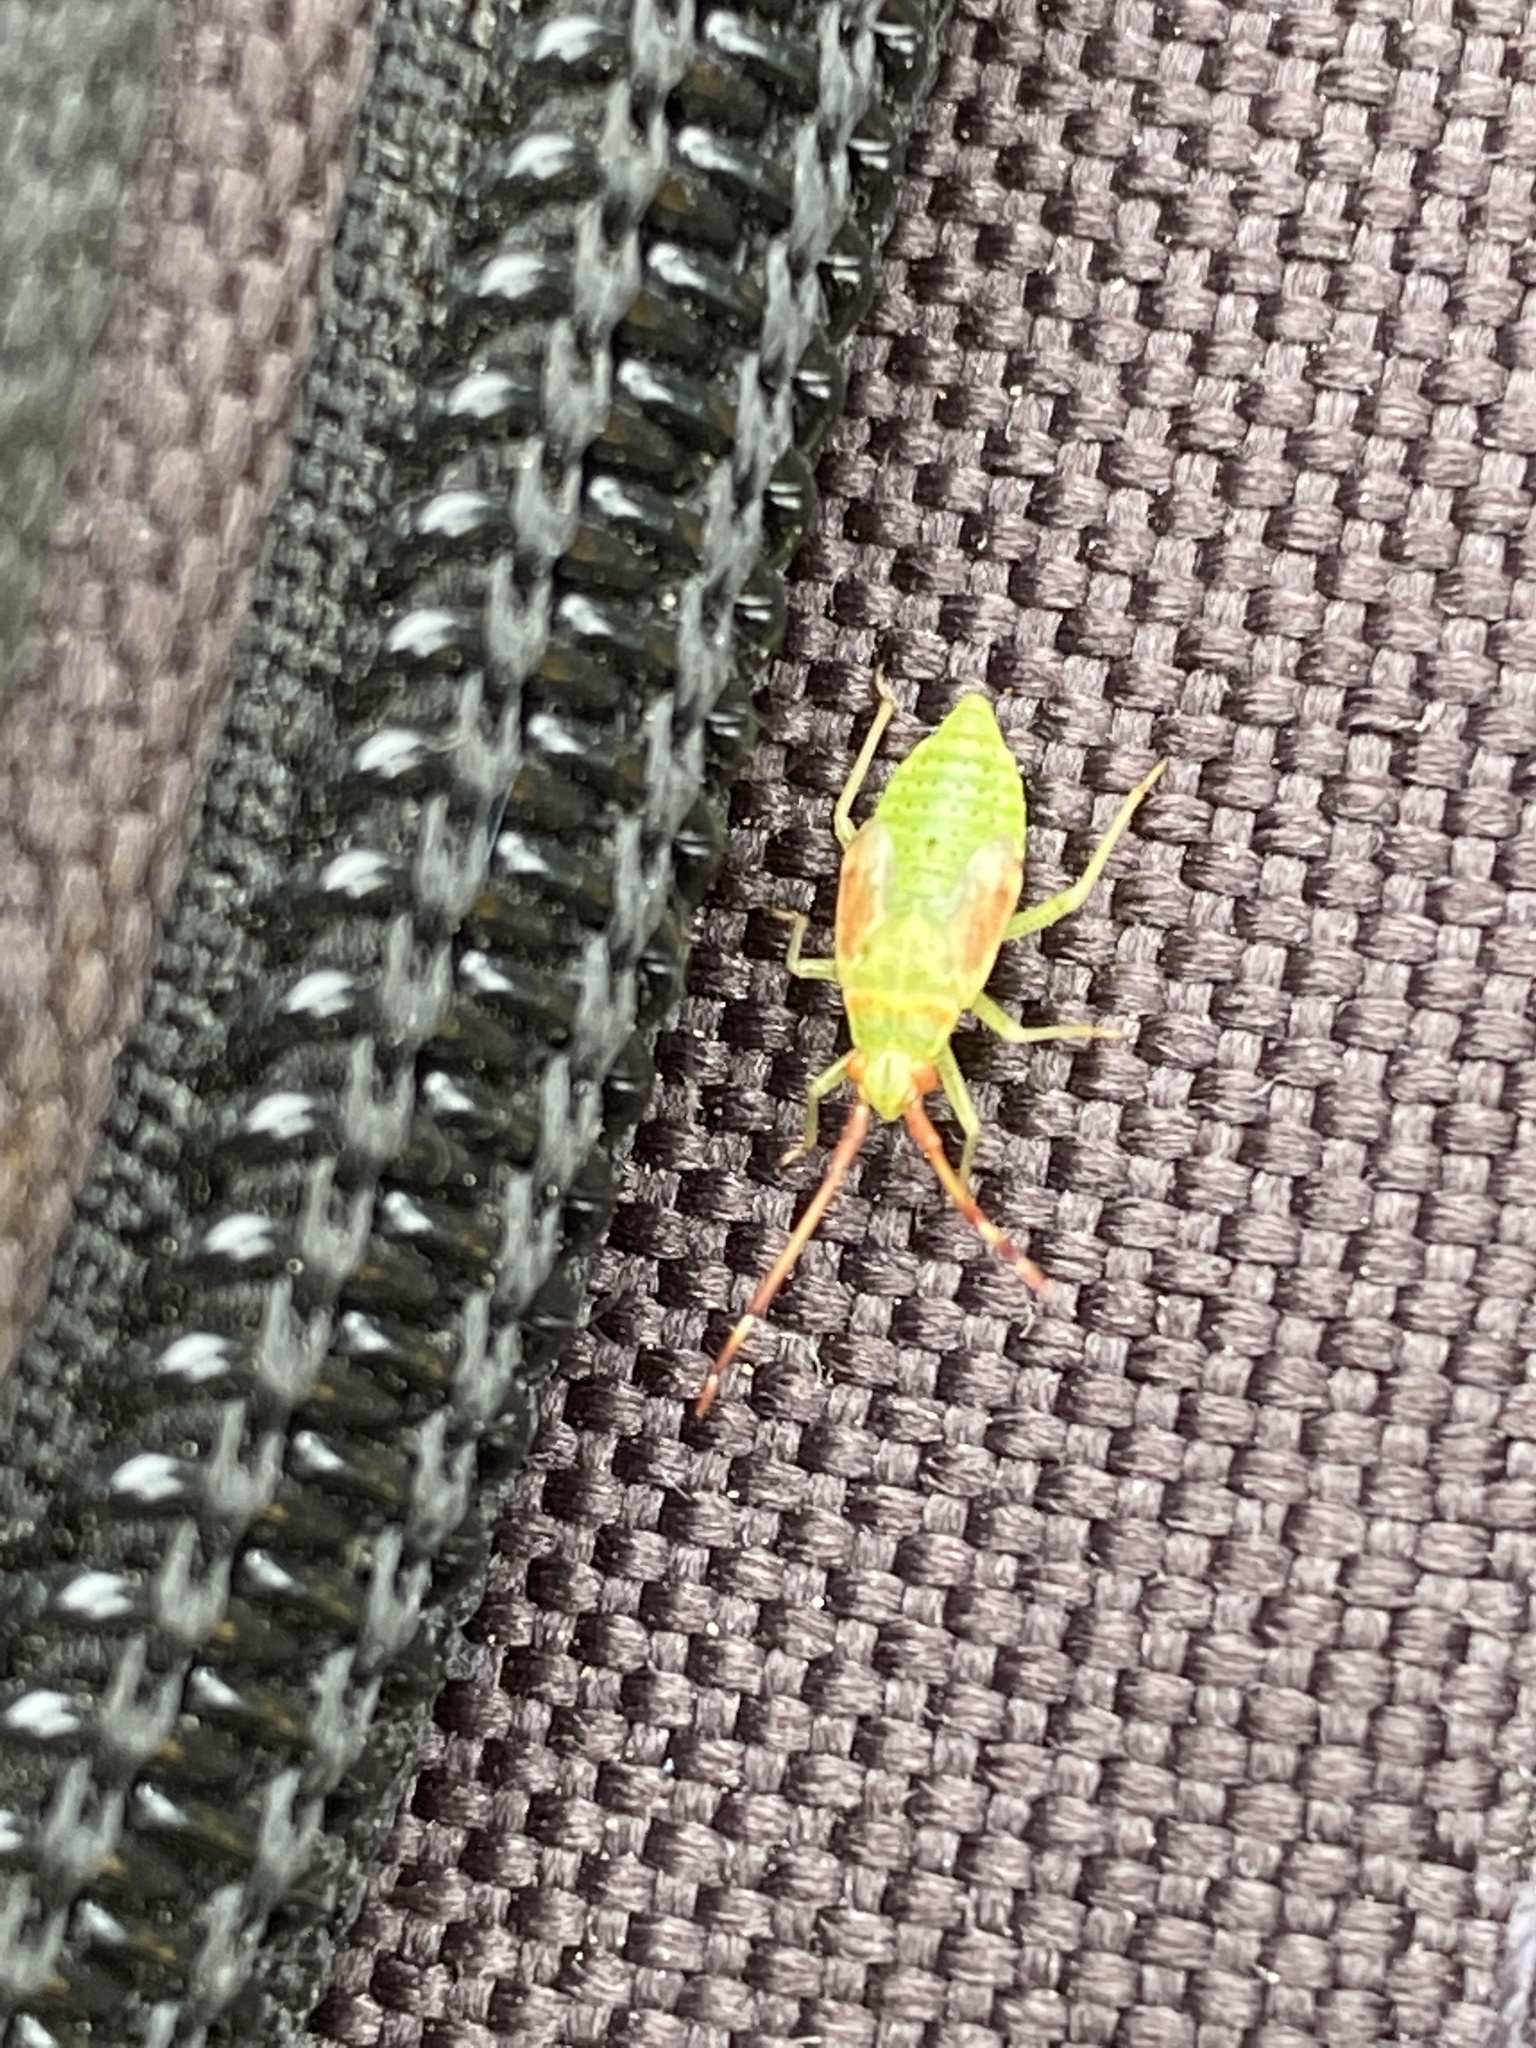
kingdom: Animalia
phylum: Arthropoda
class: Insecta
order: Hemiptera
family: Miridae
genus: Pantilius
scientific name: Pantilius tunicatus
